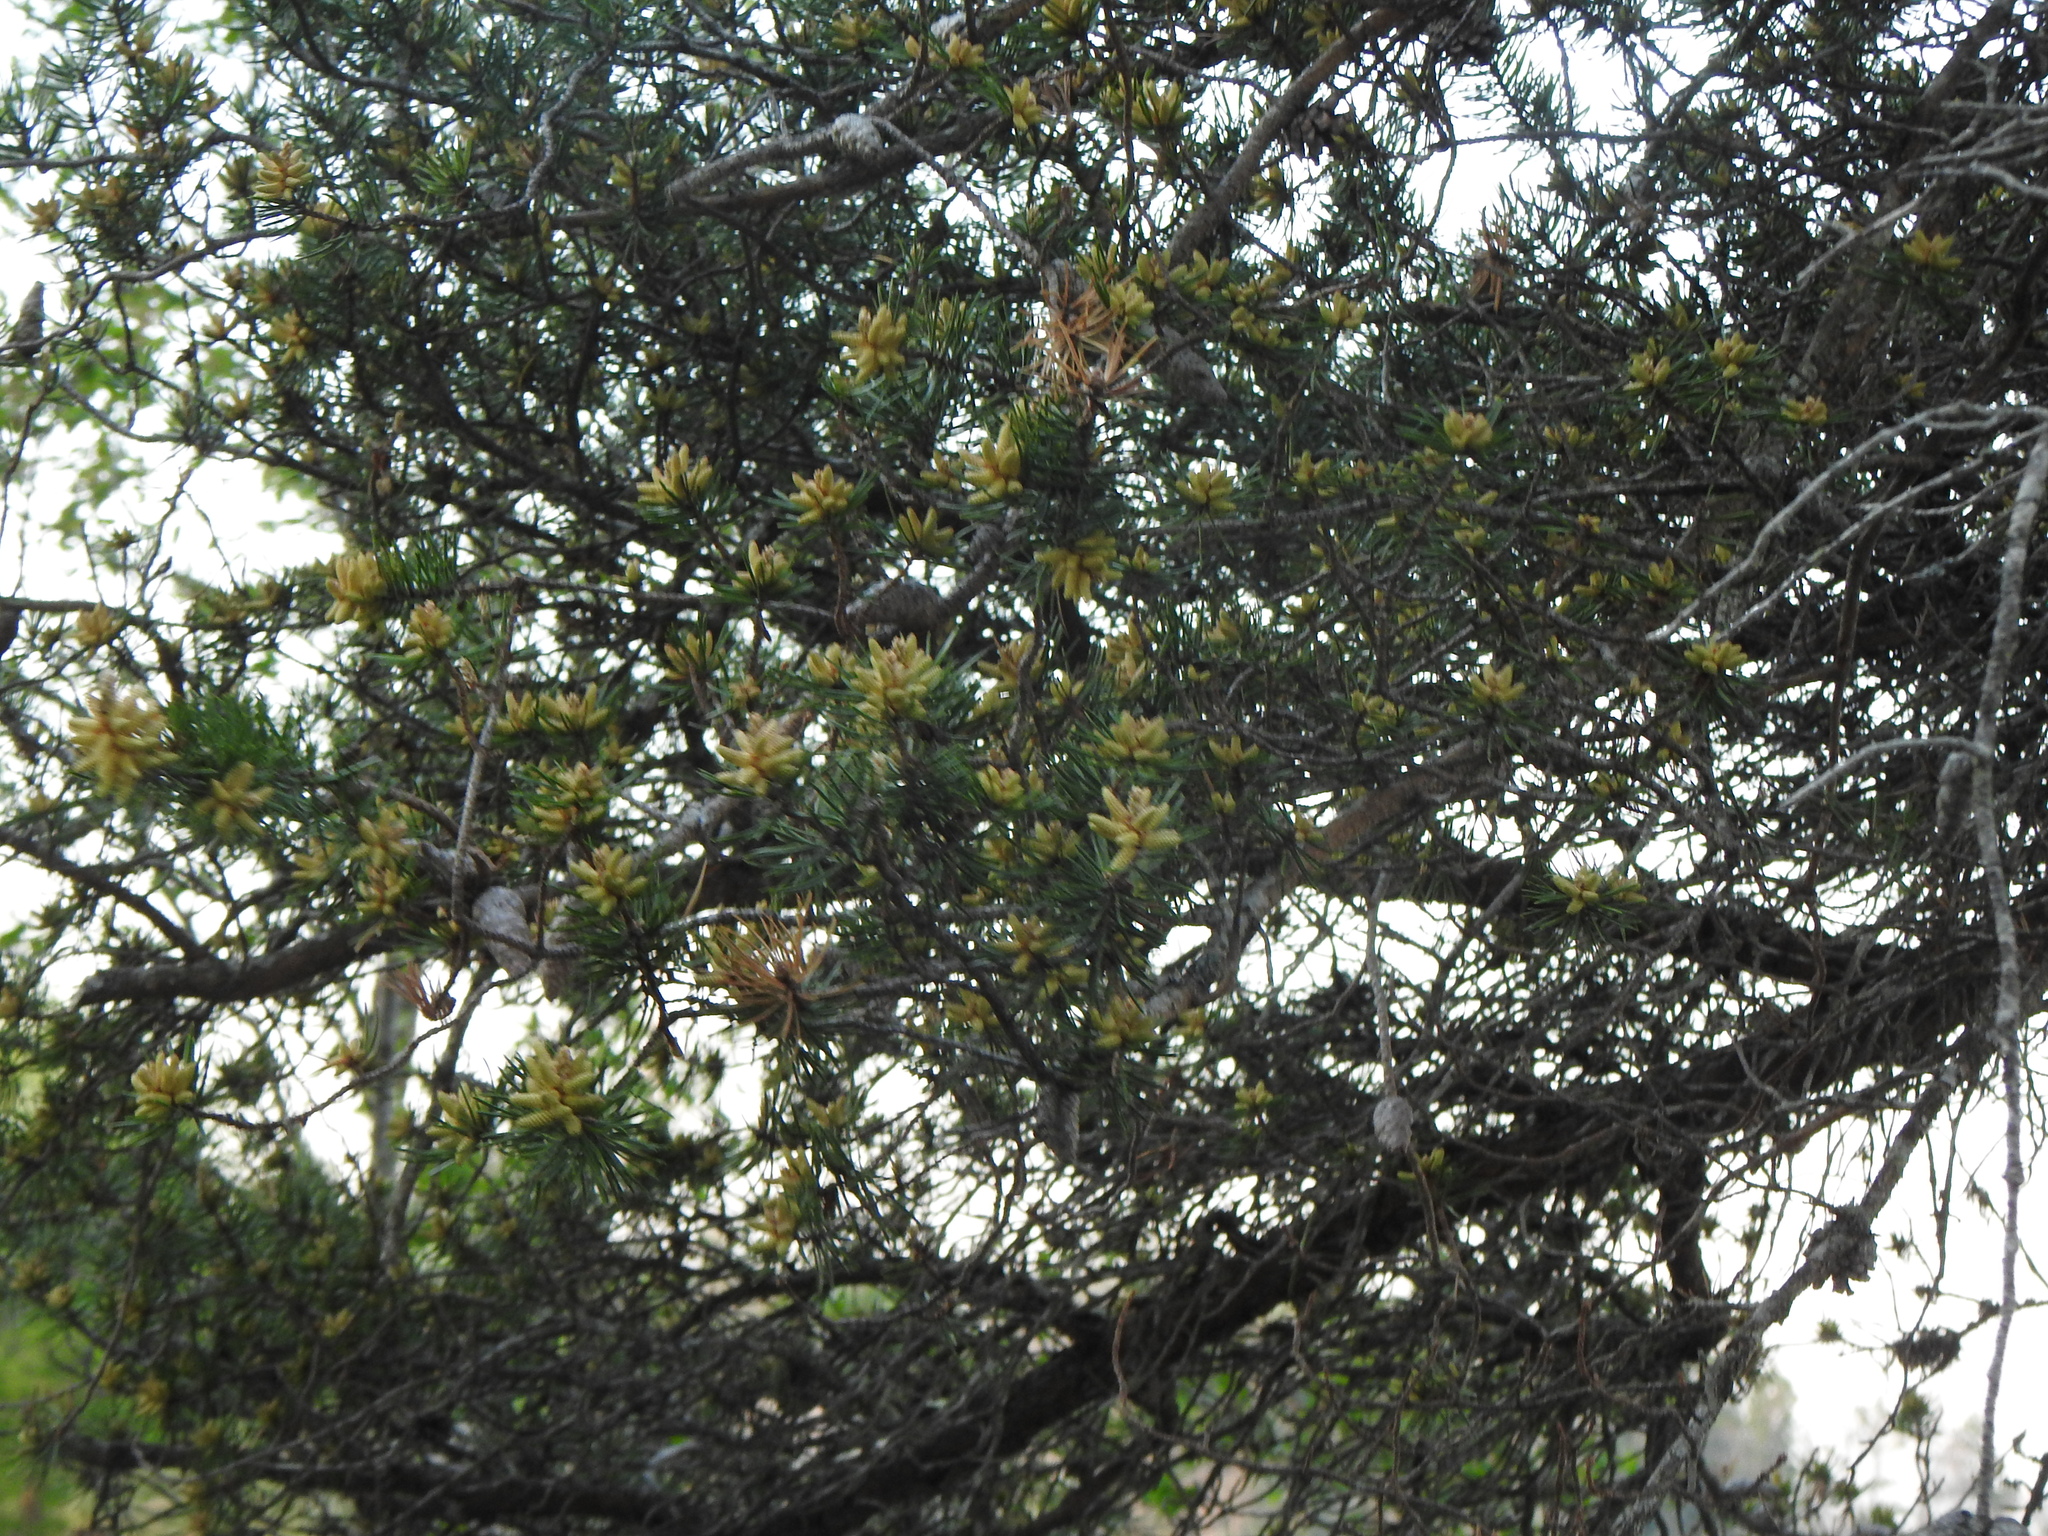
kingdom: Plantae
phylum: Tracheophyta
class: Pinopsida
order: Pinales
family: Pinaceae
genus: Pinus
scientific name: Pinus banksiana
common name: Jack pine
